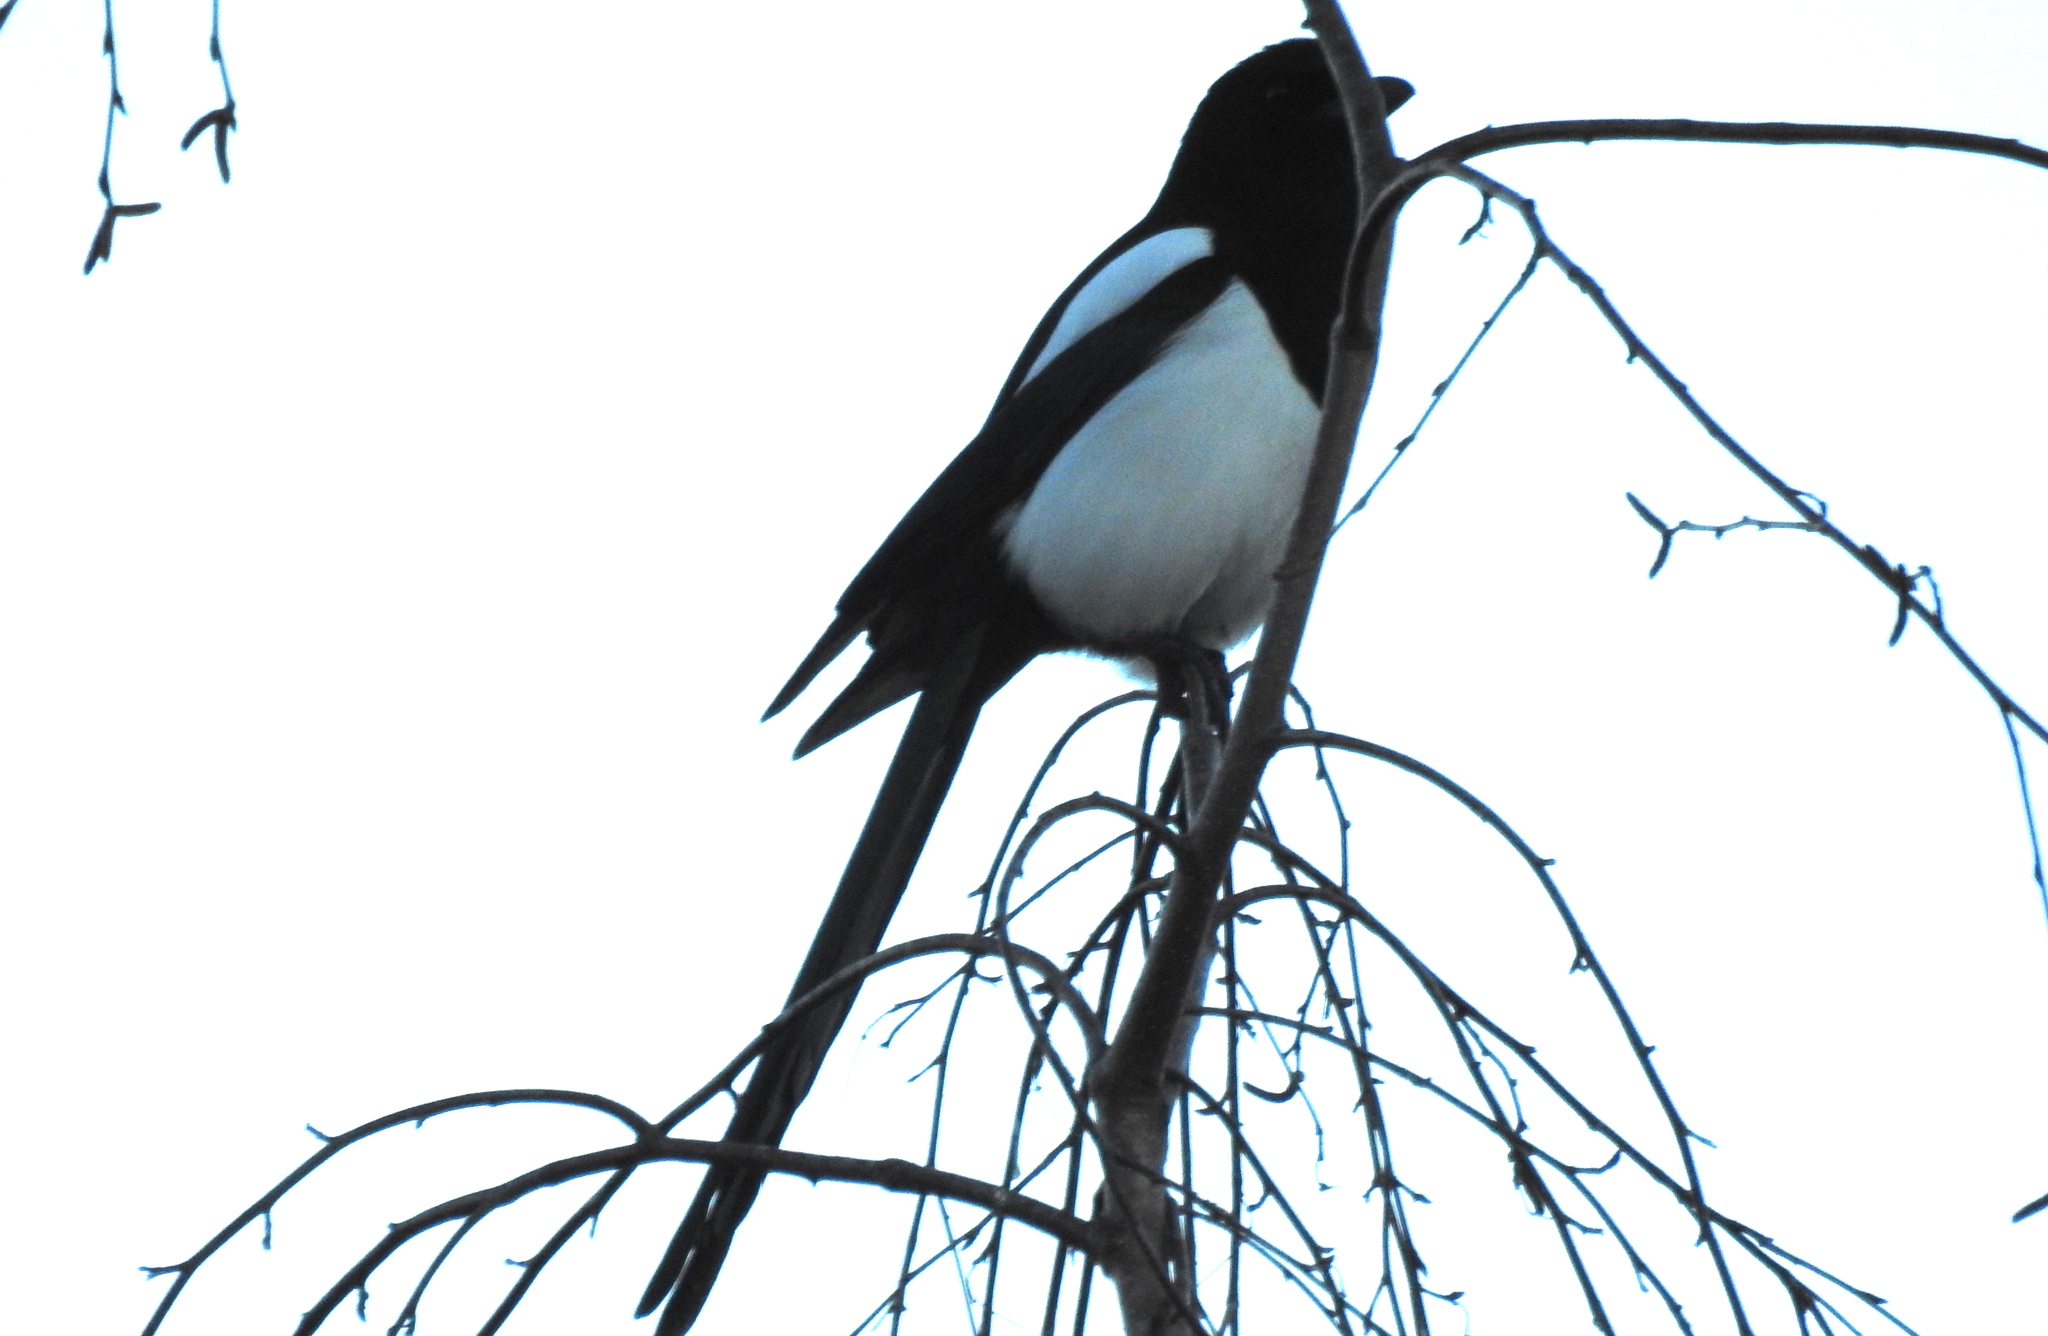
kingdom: Animalia
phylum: Chordata
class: Aves
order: Passeriformes
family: Corvidae
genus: Pica
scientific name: Pica pica
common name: Eurasian magpie
